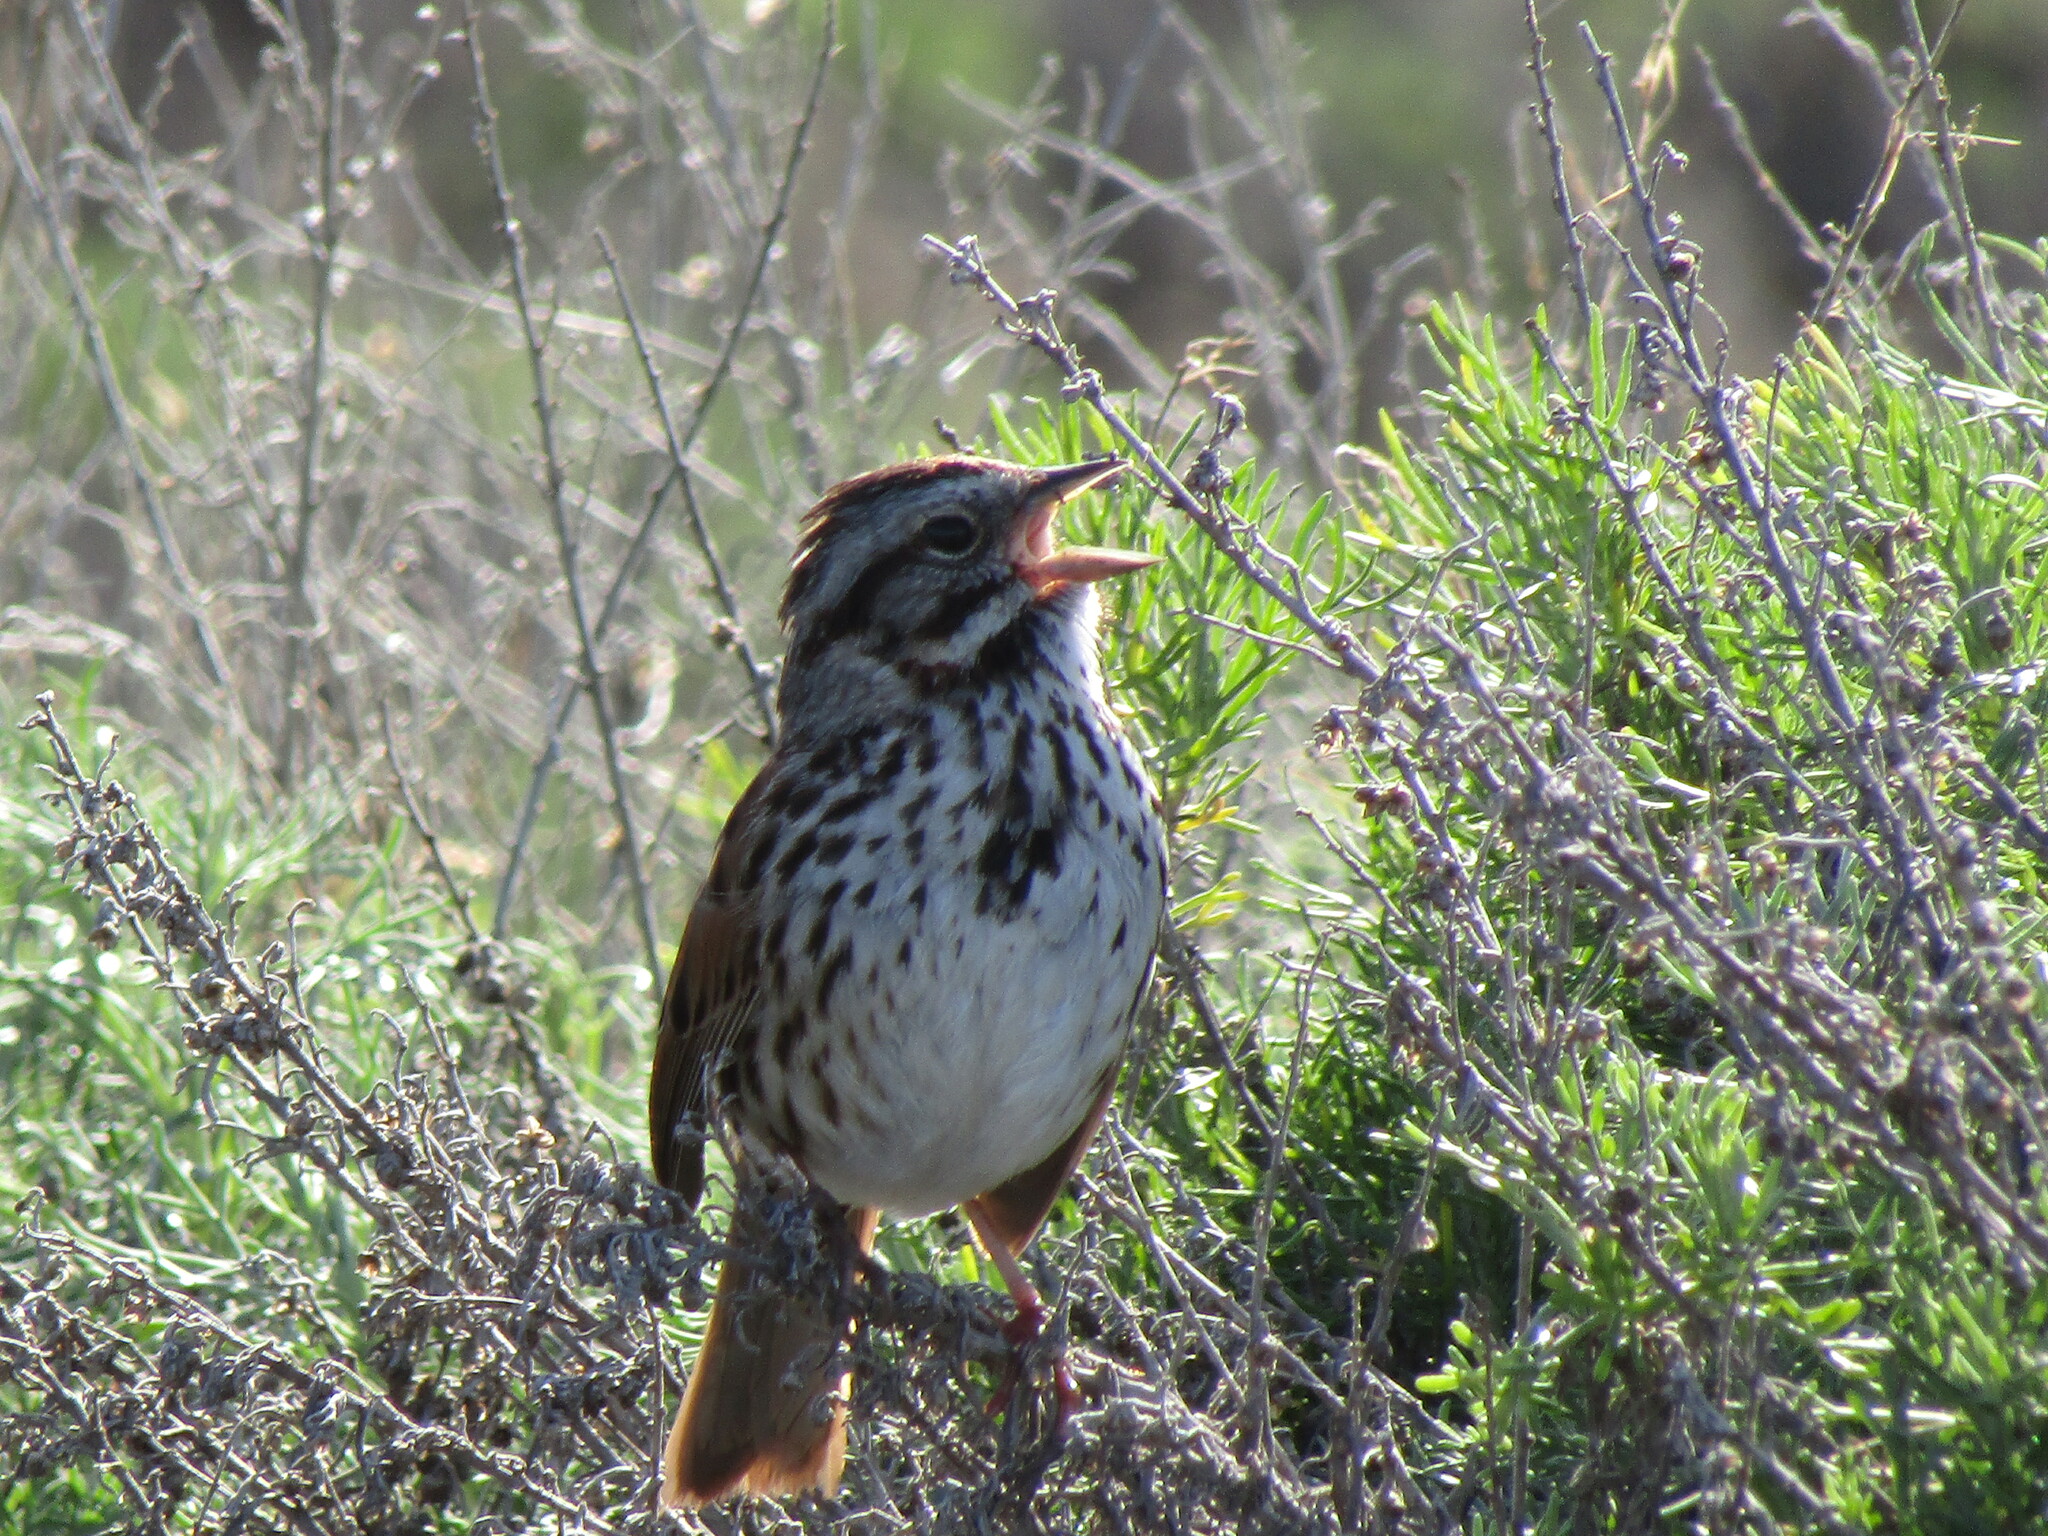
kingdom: Animalia
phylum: Chordata
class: Aves
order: Passeriformes
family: Passerellidae
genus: Melospiza
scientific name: Melospiza melodia
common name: Song sparrow
